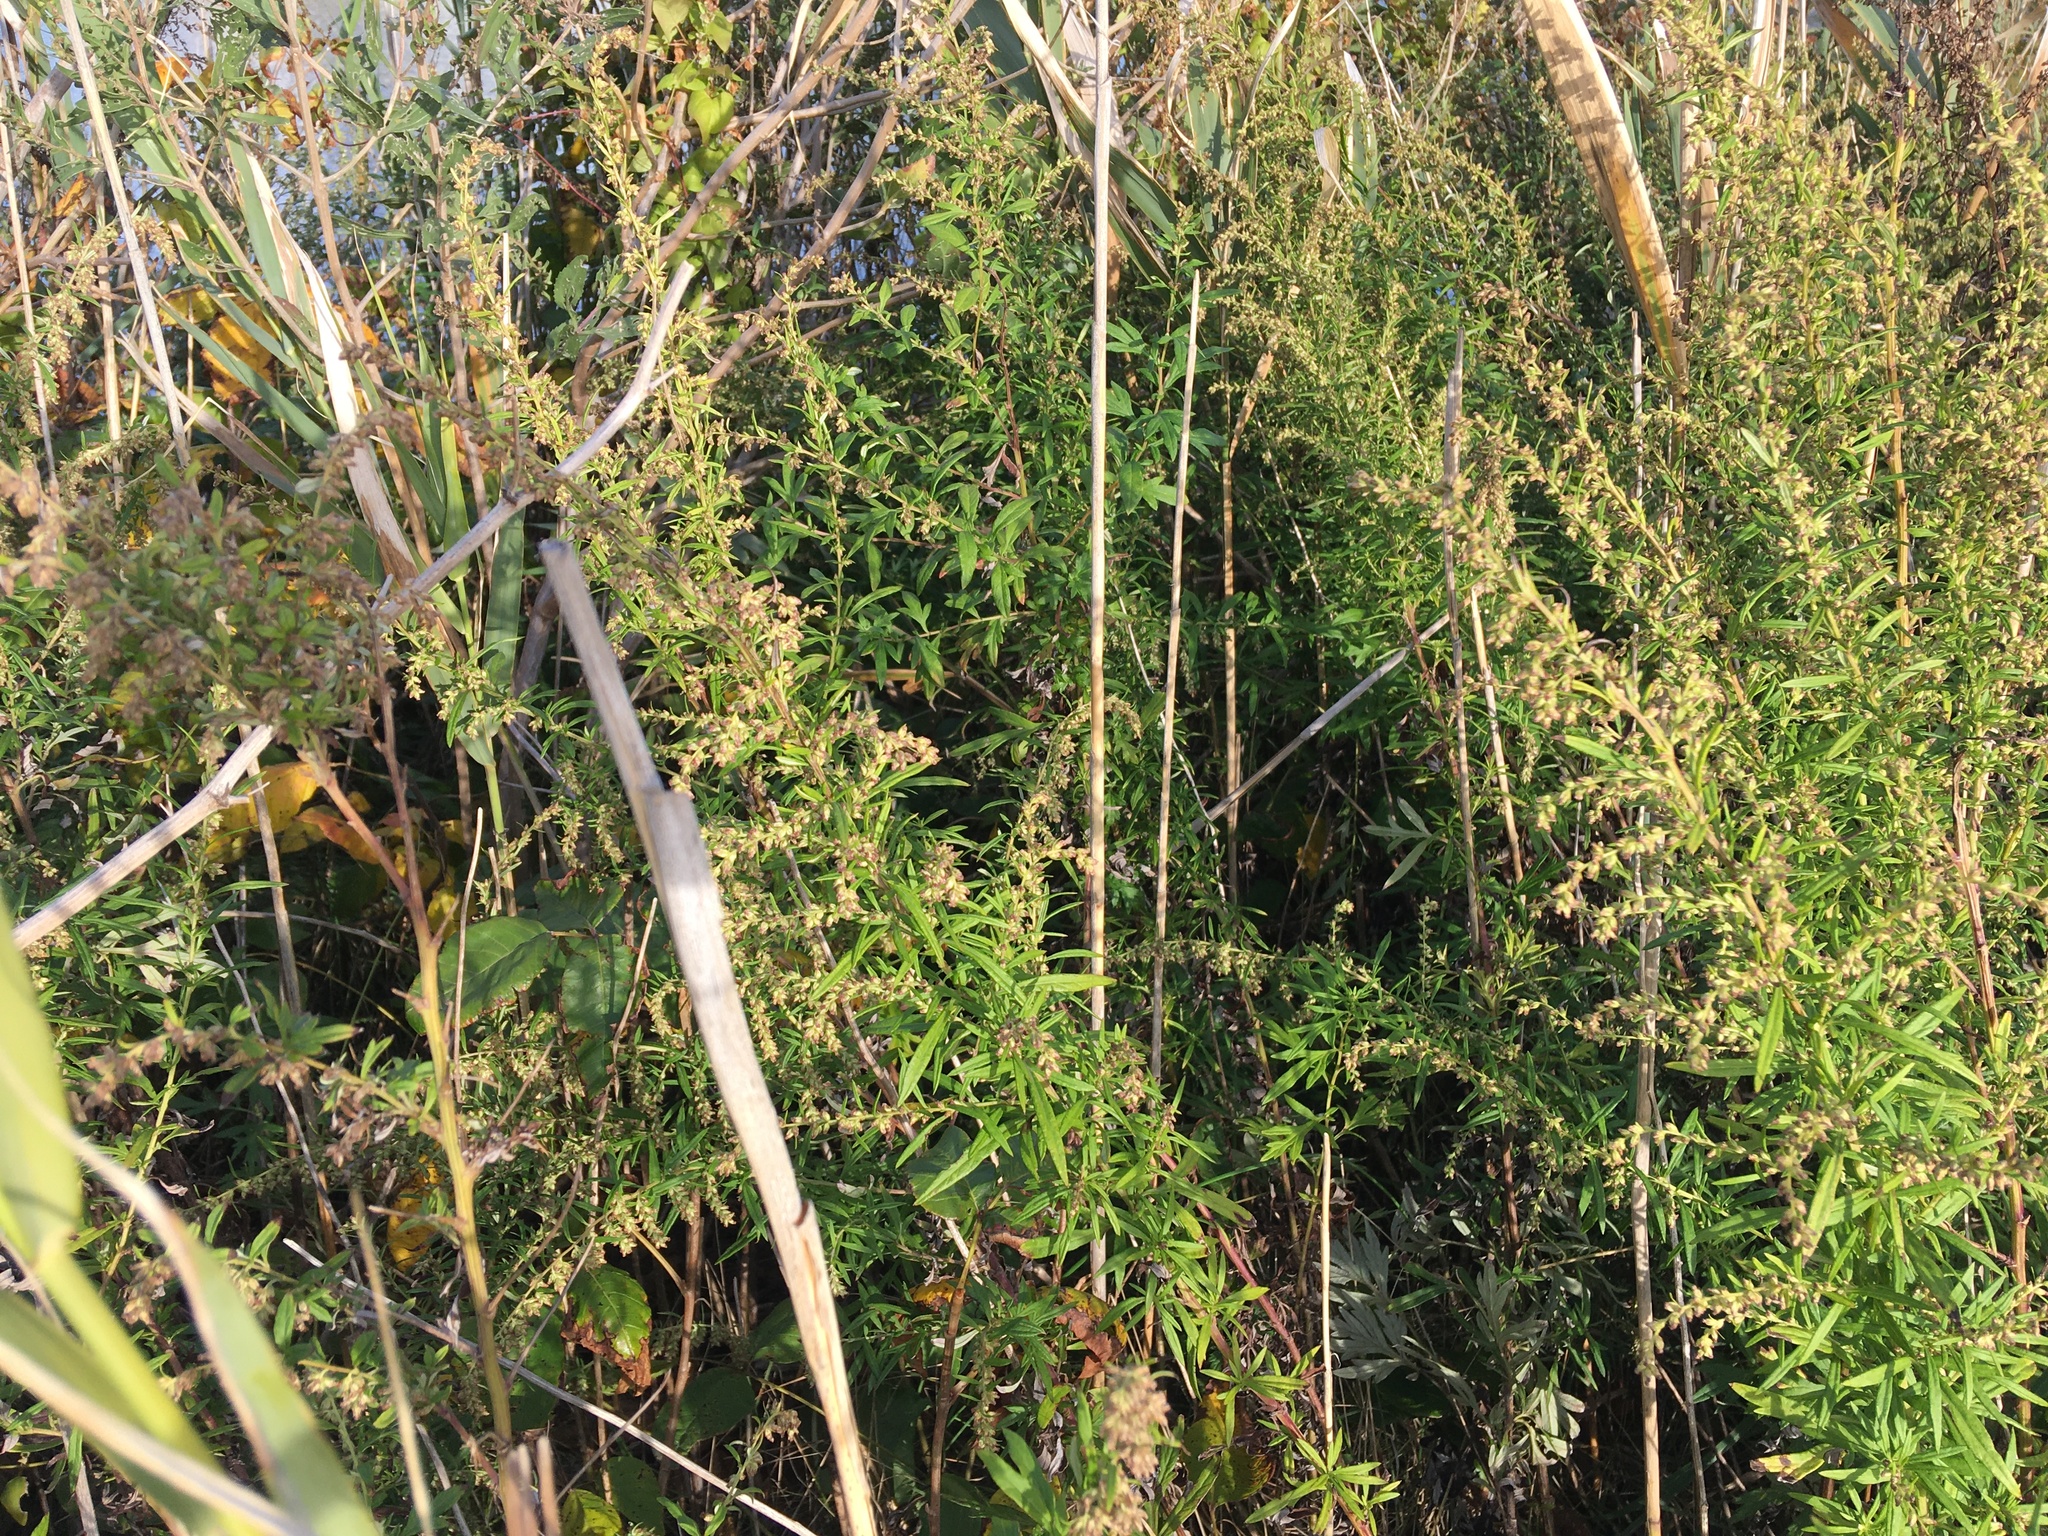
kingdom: Plantae
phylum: Tracheophyta
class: Magnoliopsida
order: Asterales
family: Asteraceae
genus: Artemisia
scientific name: Artemisia vulgaris
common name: Mugwort
